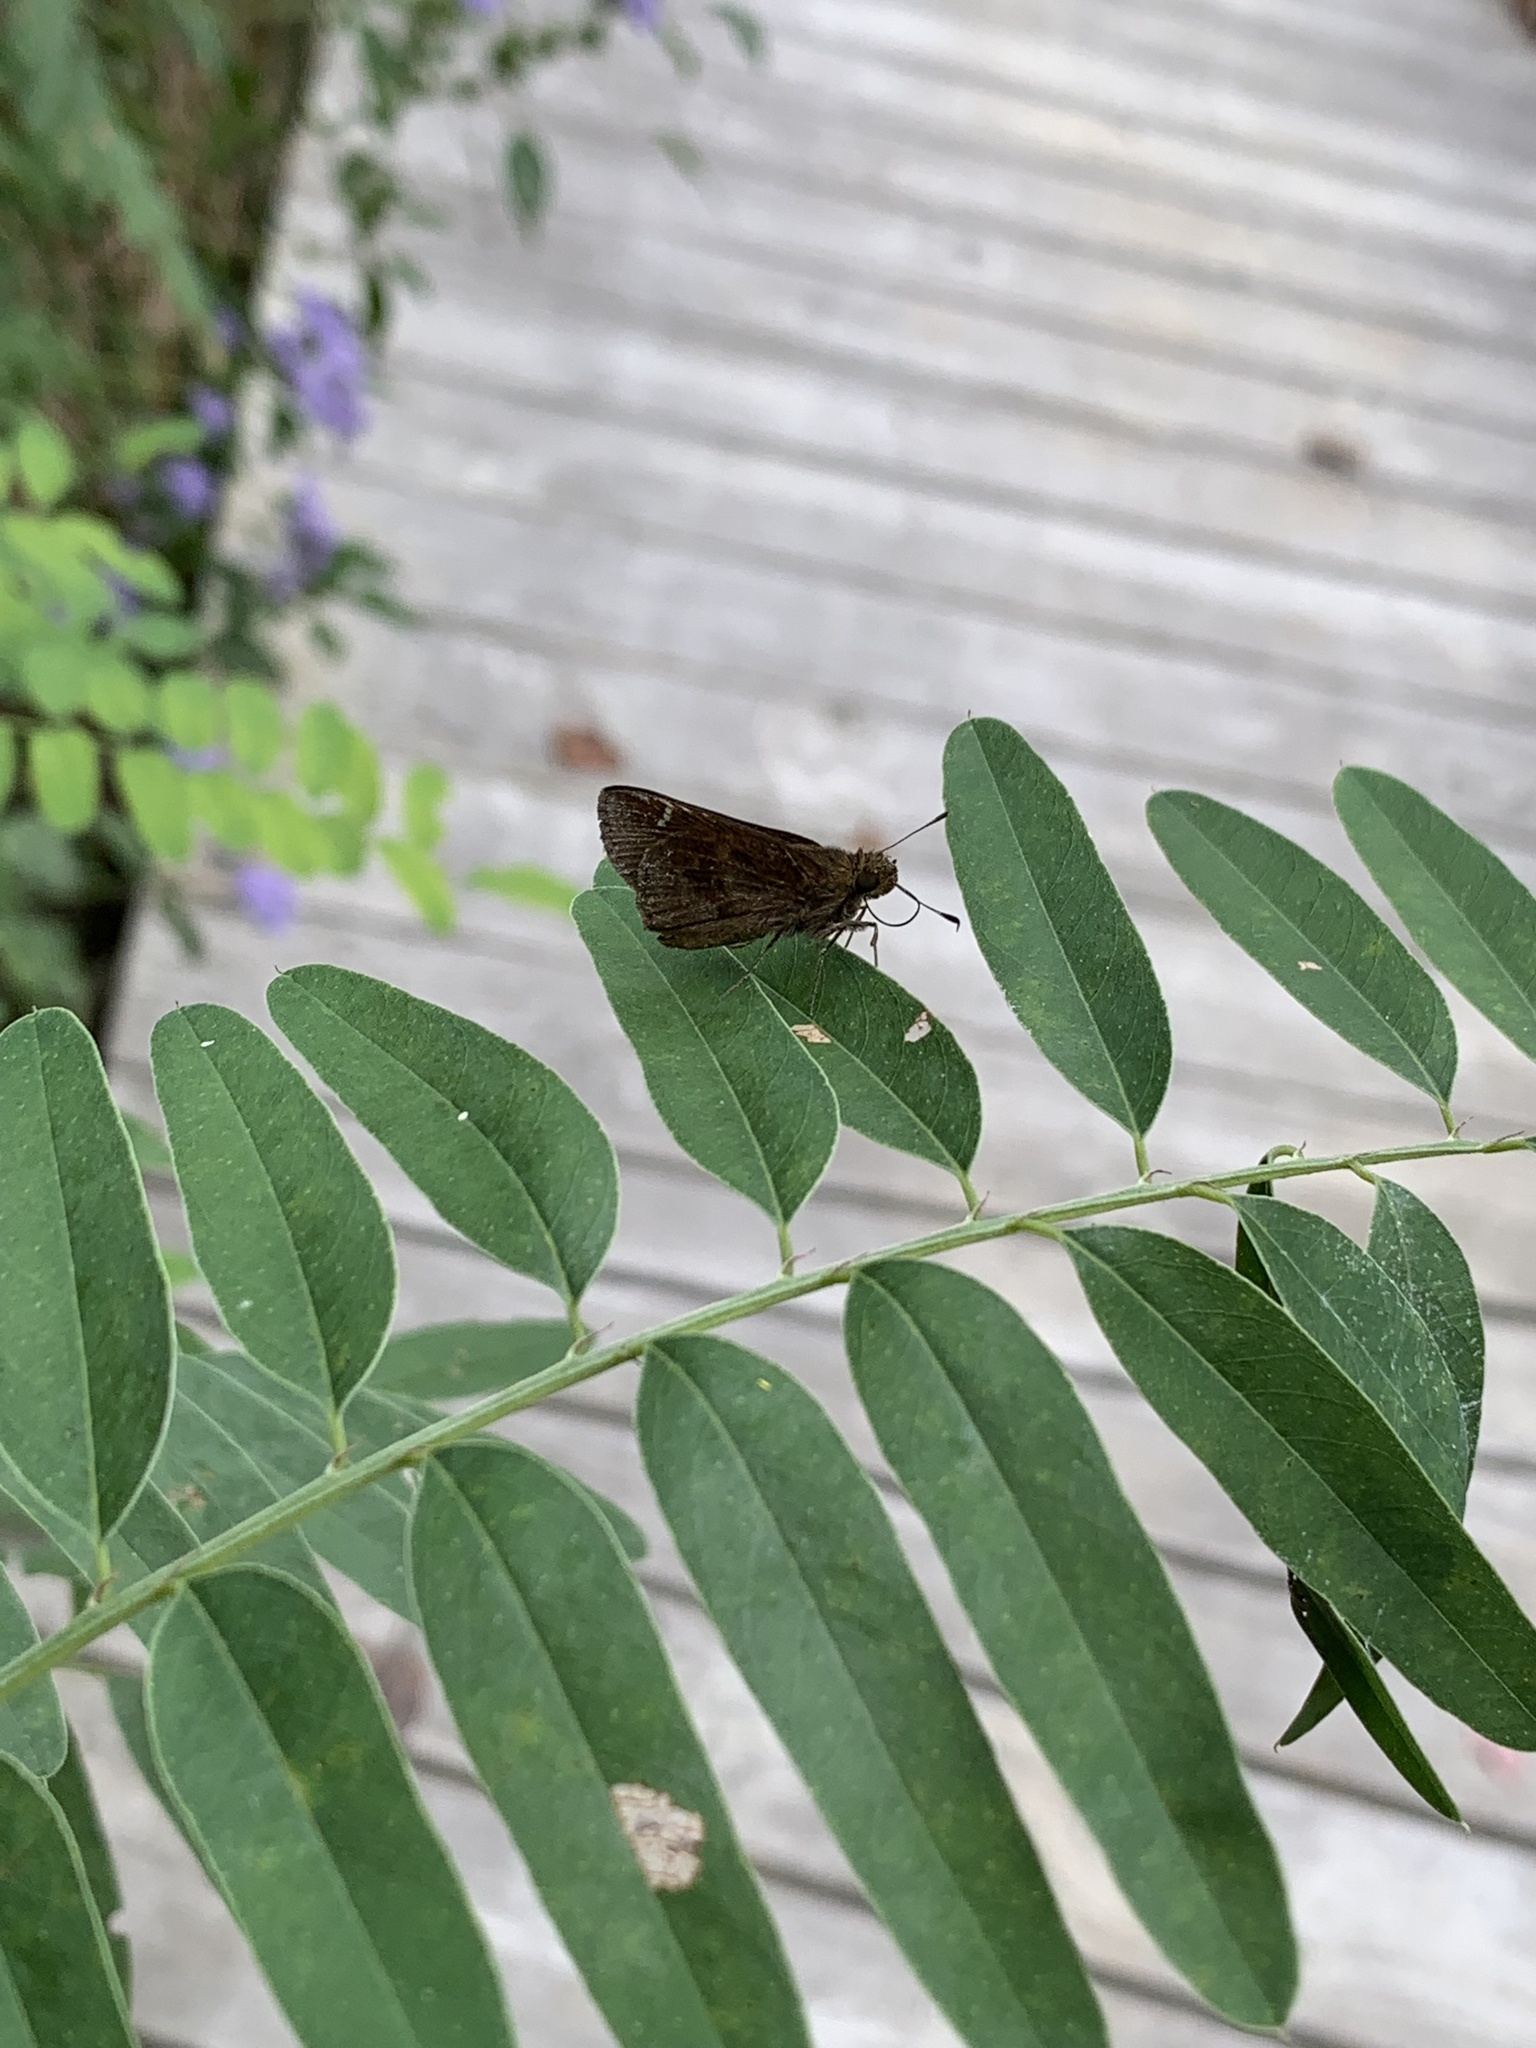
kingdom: Animalia
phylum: Arthropoda
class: Insecta
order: Lepidoptera
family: Hesperiidae
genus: Lerema
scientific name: Lerema accius
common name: Clouded skipper
